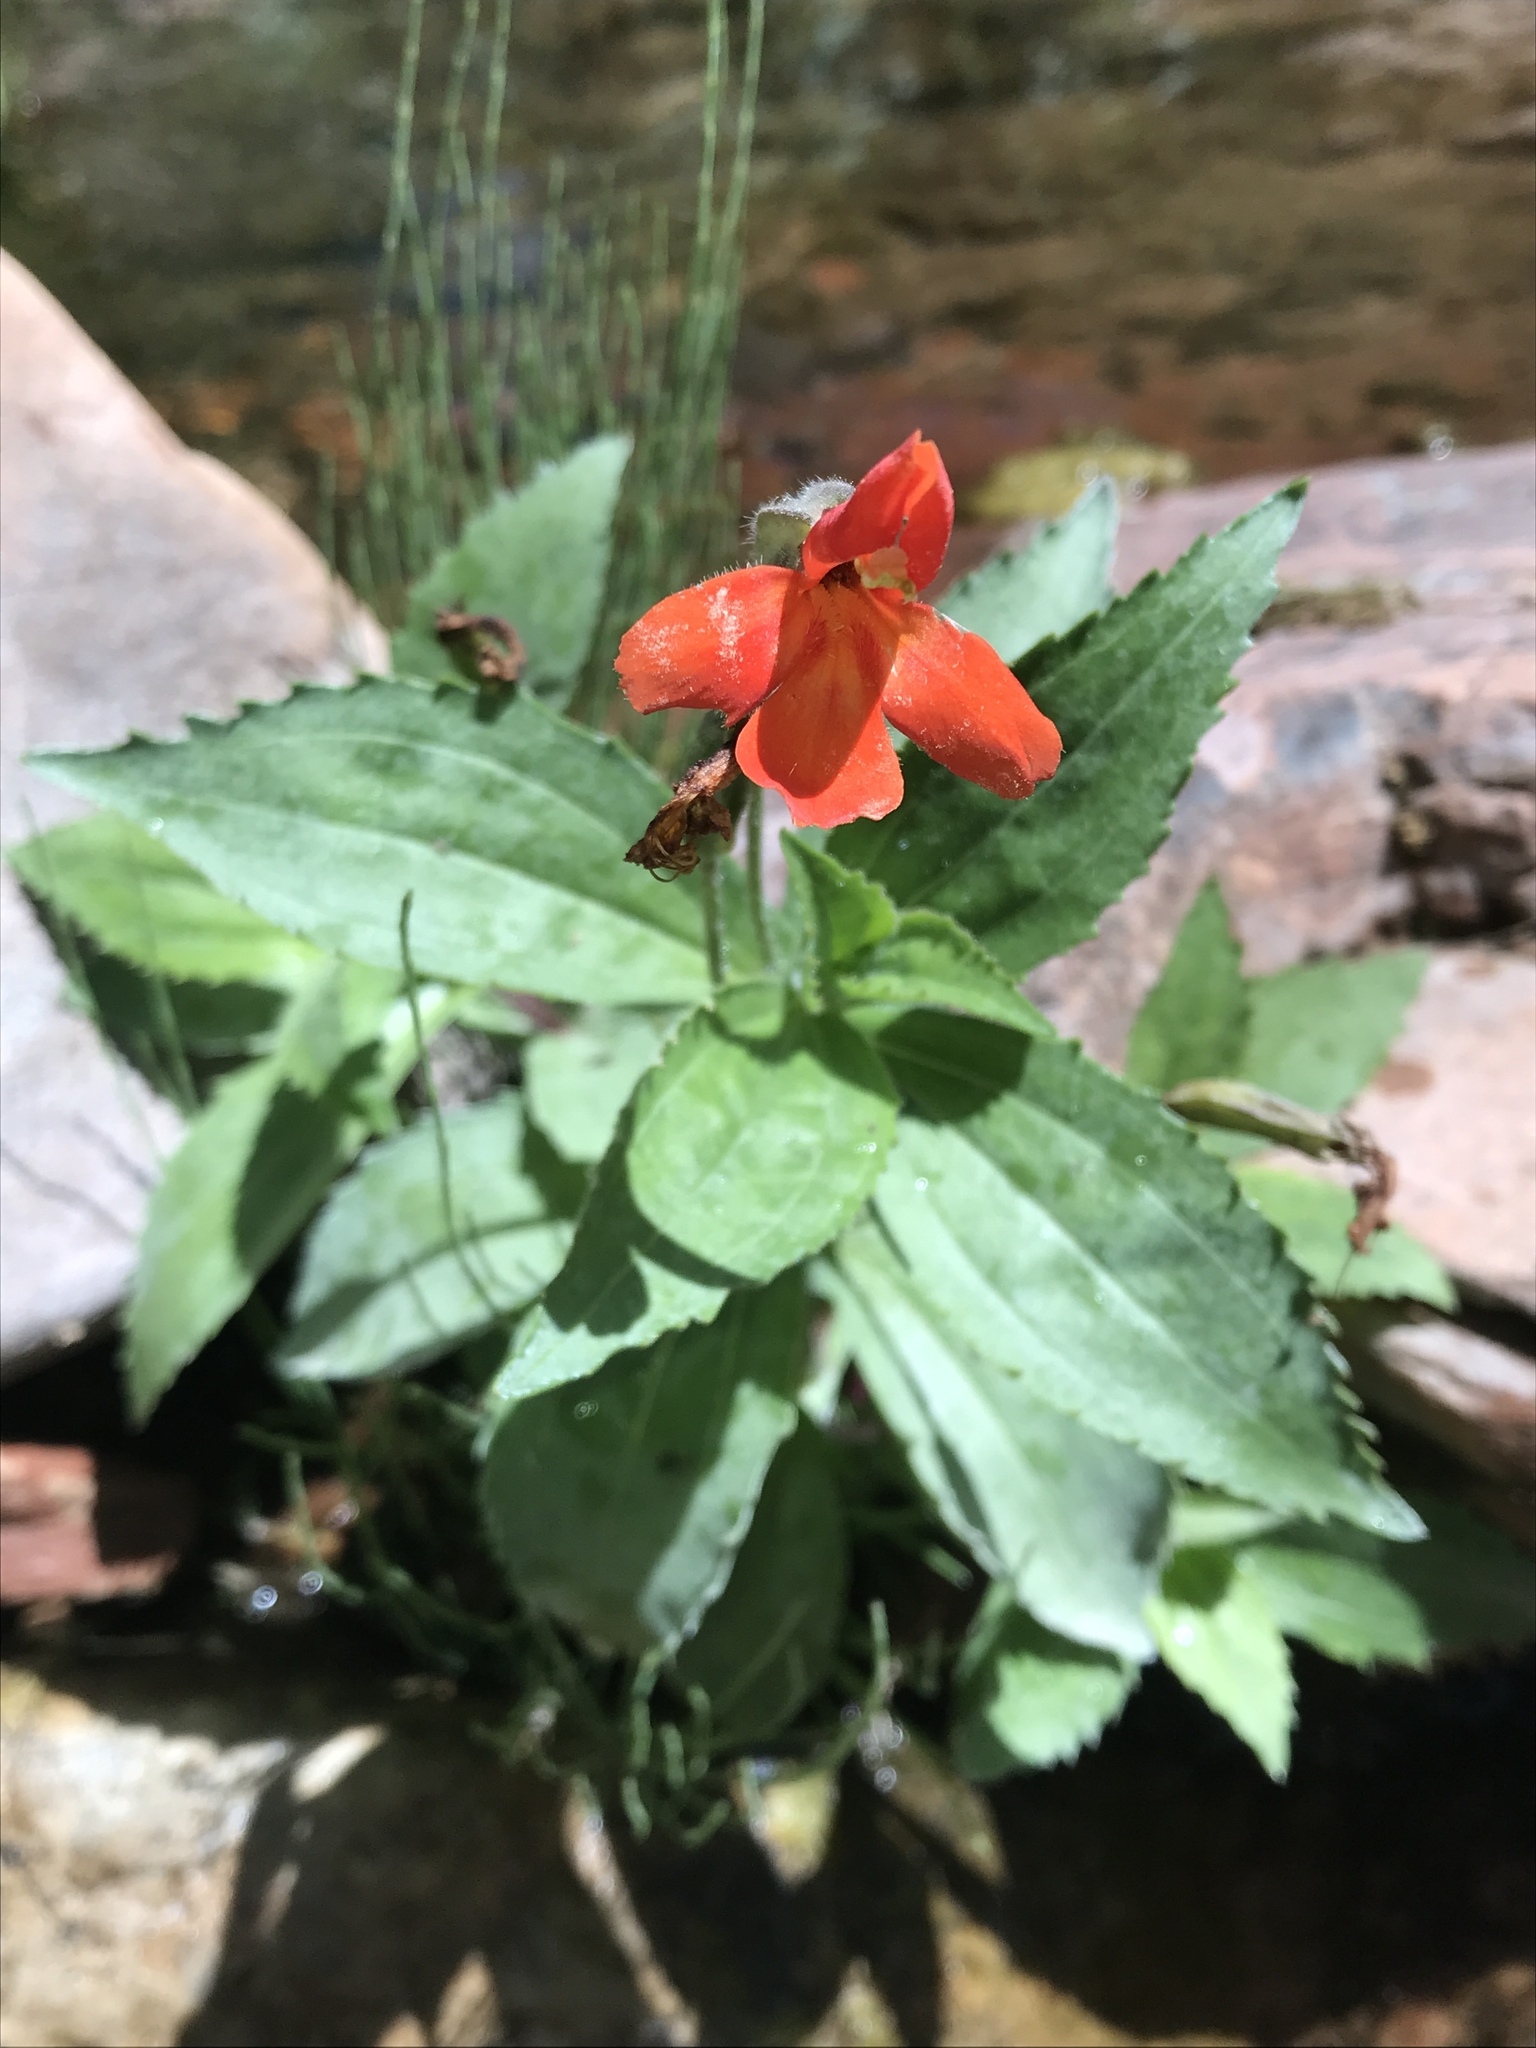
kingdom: Plantae
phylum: Tracheophyta
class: Magnoliopsida
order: Lamiales
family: Phrymaceae
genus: Erythranthe
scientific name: Erythranthe verbenacea
